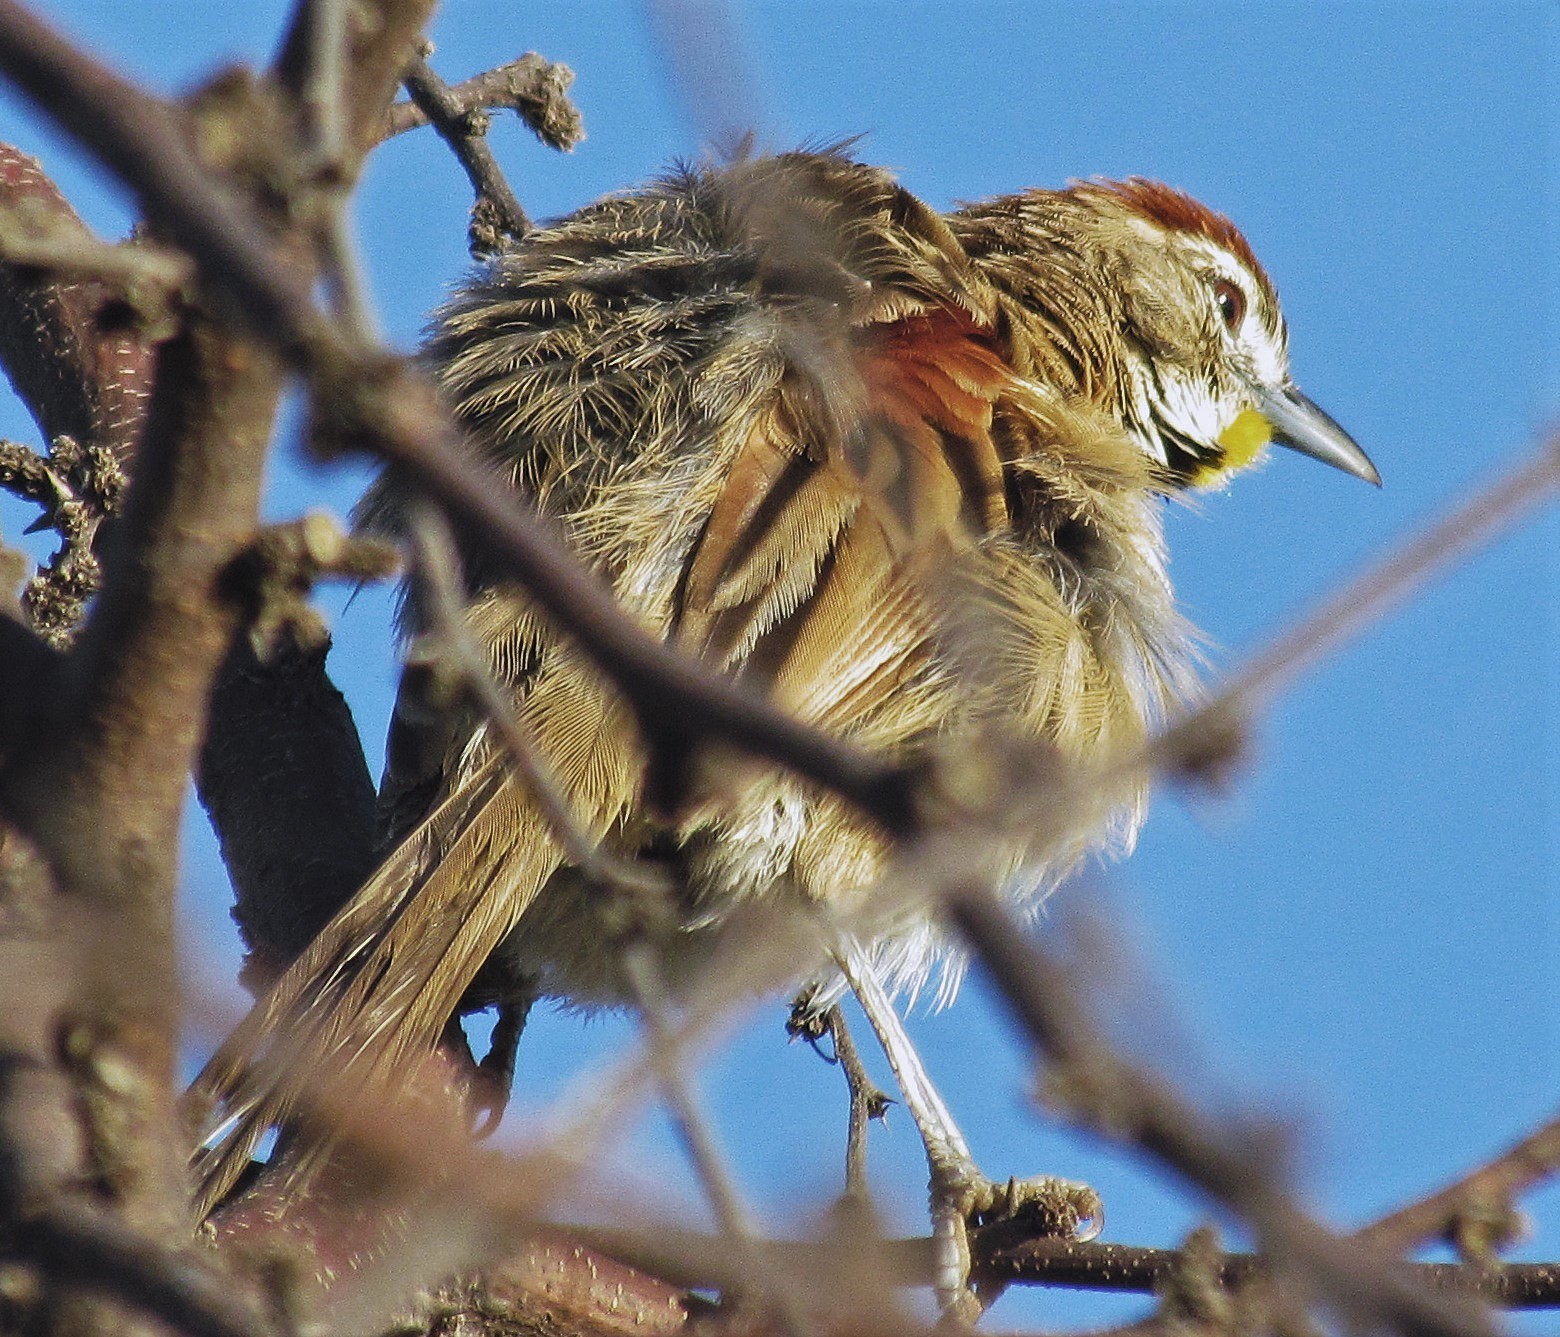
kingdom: Animalia
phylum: Chordata
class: Aves
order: Passeriformes
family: Furnariidae
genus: Schoeniophylax
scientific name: Schoeniophylax phryganophilus
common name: Chotoy spinetail
